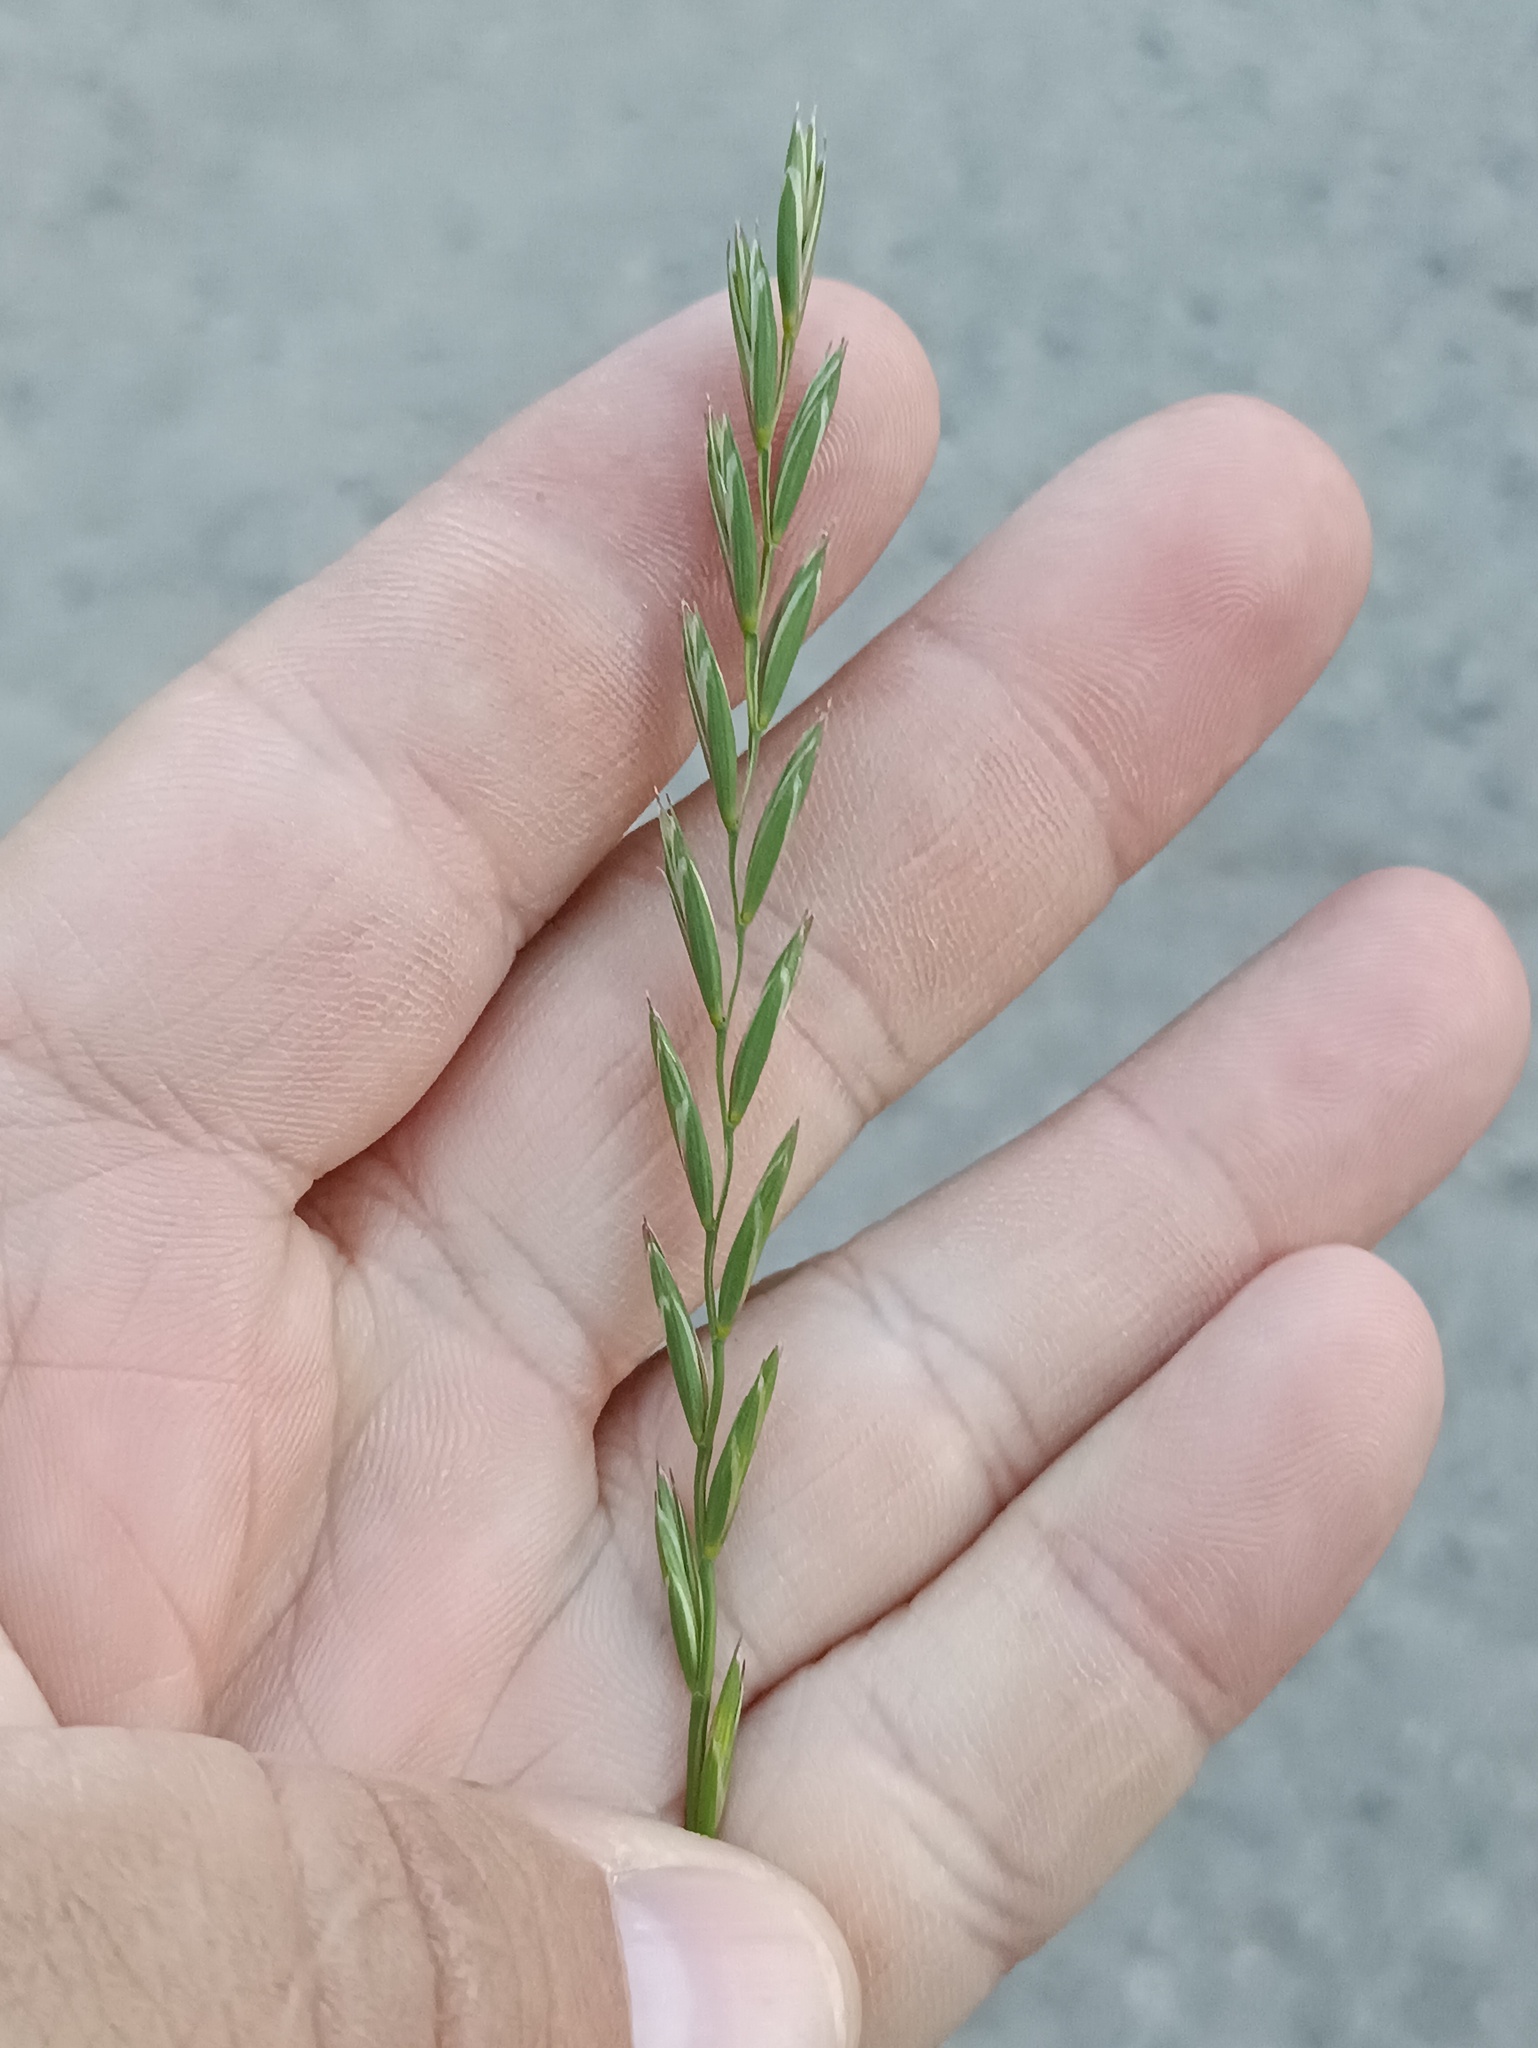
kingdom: Plantae
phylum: Tracheophyta
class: Liliopsida
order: Poales
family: Poaceae
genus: Elymus
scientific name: Elymus repens
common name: Quackgrass
